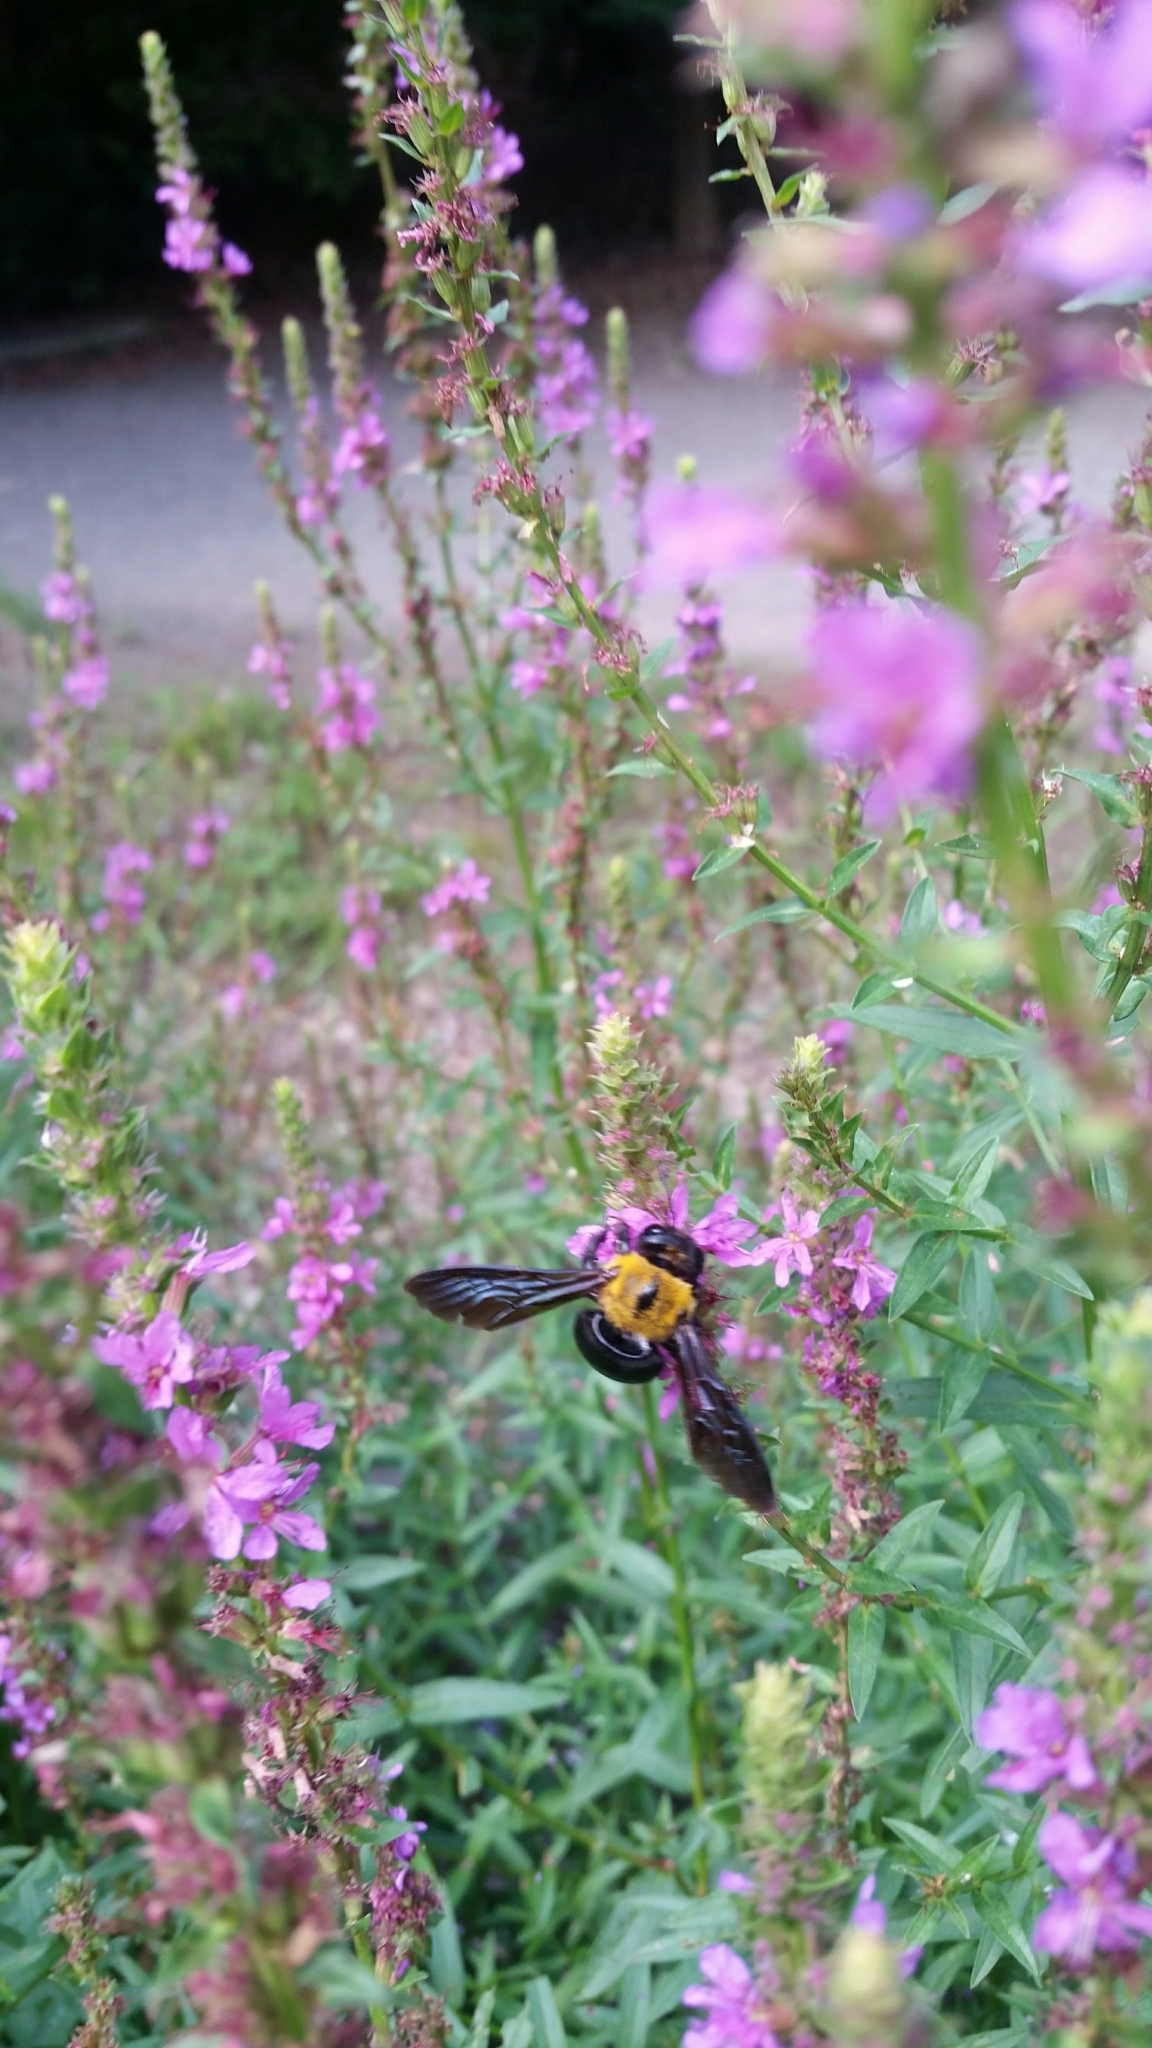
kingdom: Animalia
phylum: Arthropoda
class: Insecta
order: Hymenoptera
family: Apidae
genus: Xylocopa
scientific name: Xylocopa appendiculata
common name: Japanese carpenter bee
